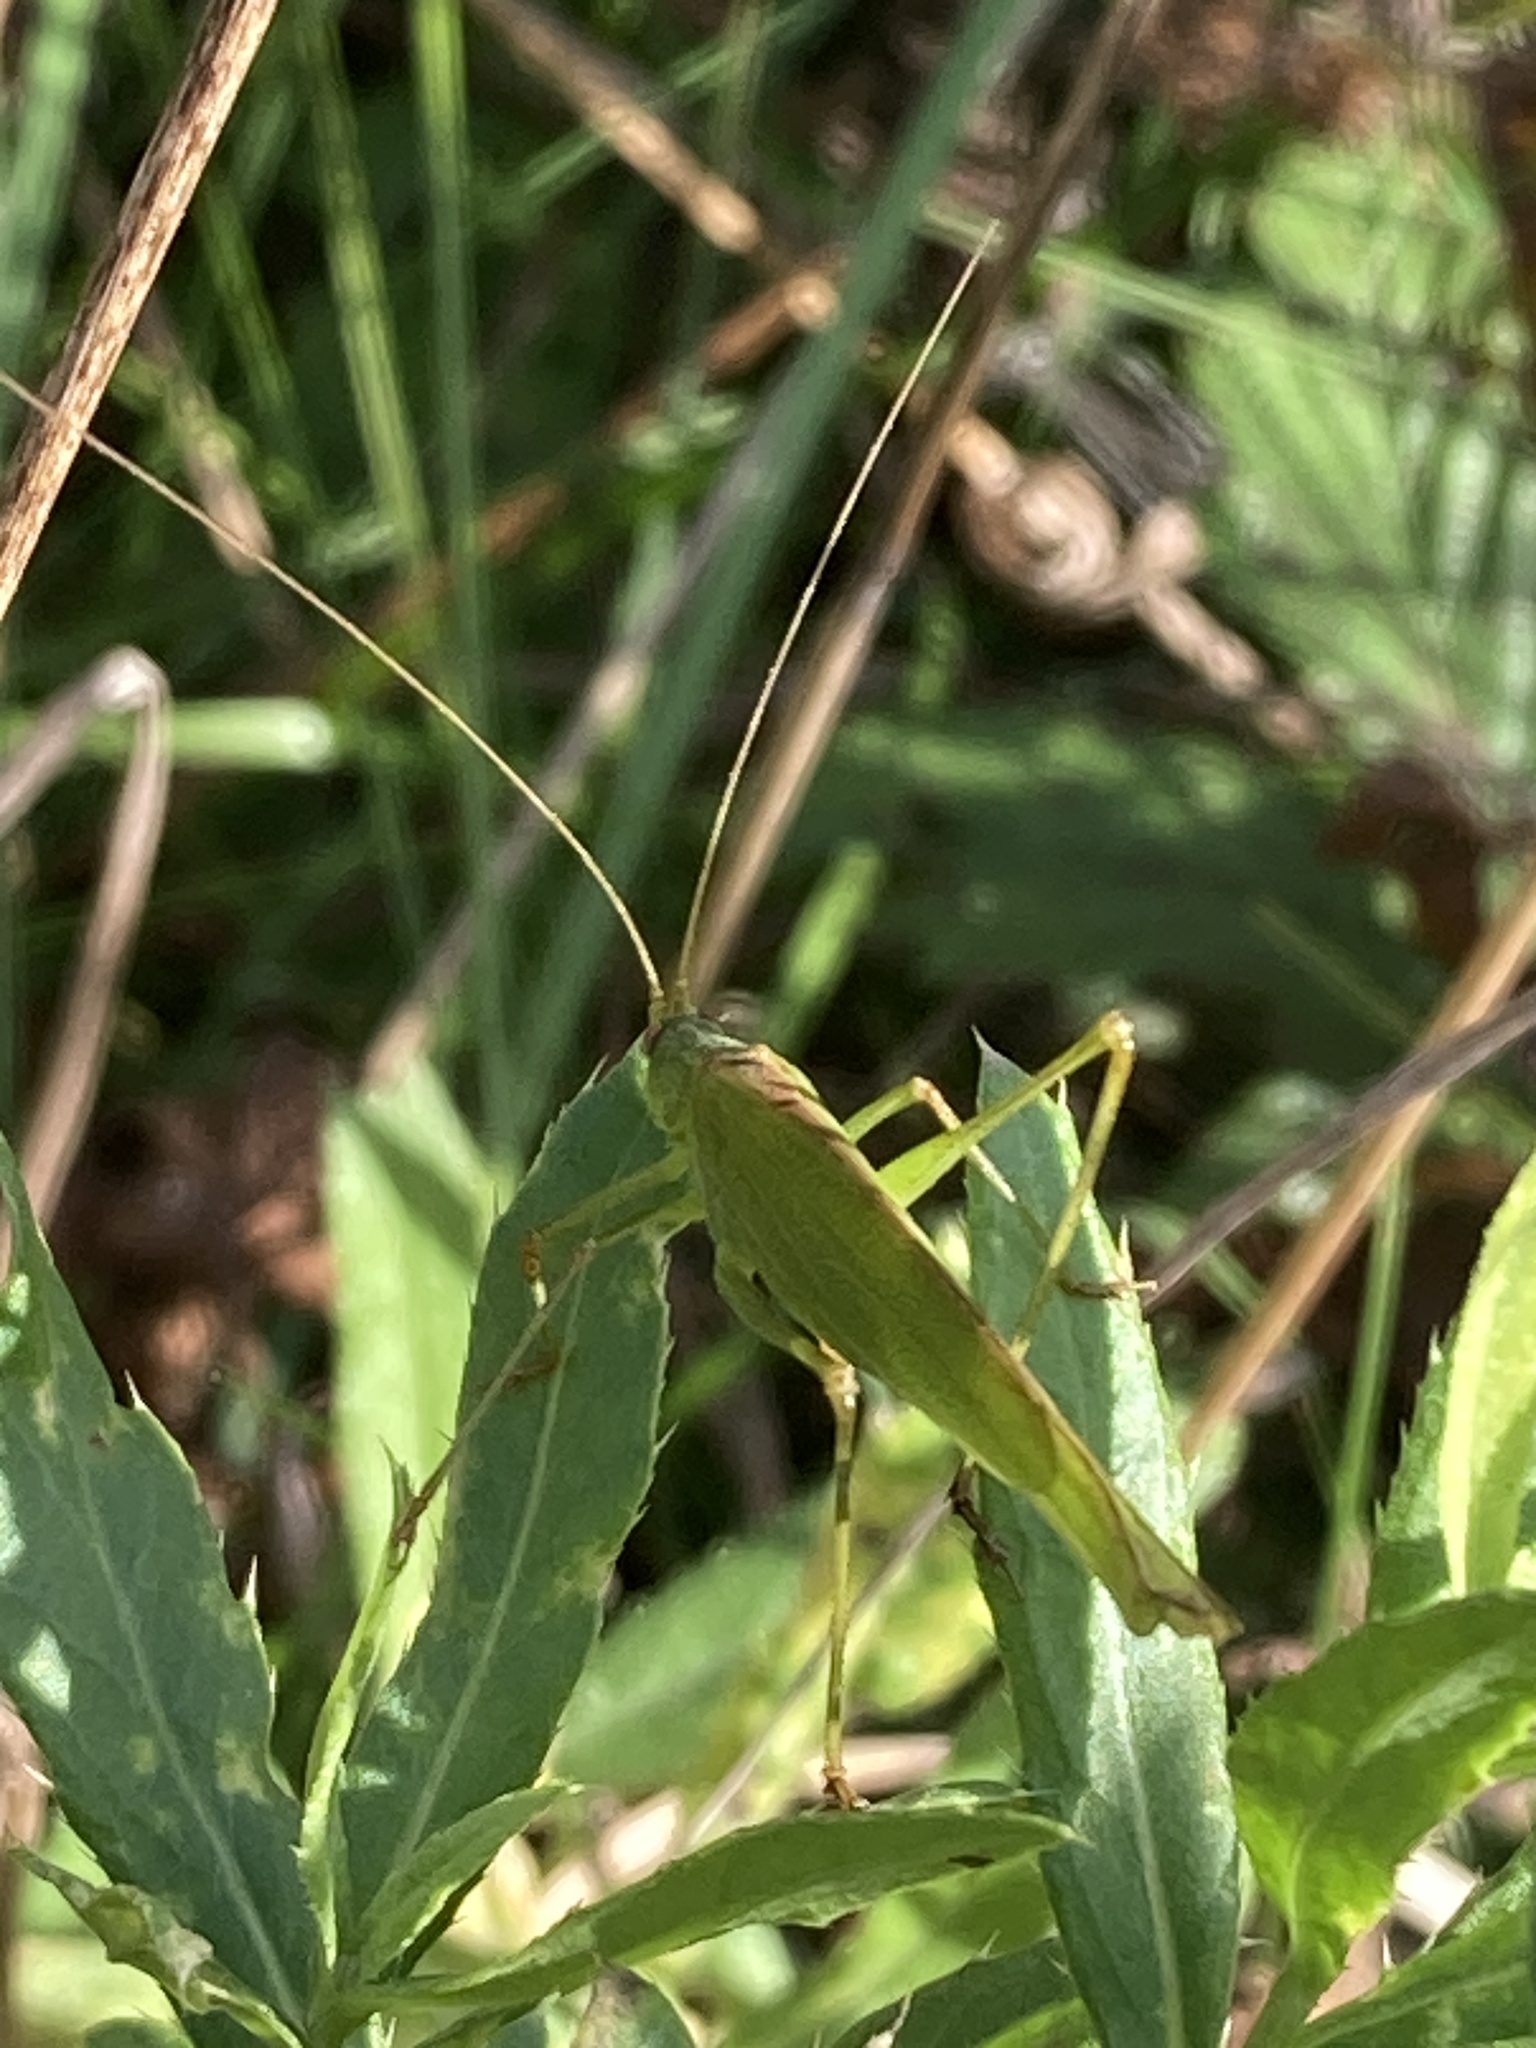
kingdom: Animalia
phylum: Arthropoda
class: Insecta
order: Orthoptera
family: Tettigoniidae
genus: Phaneroptera
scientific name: Phaneroptera falcata
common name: Sickle-bearing bush-cricket
